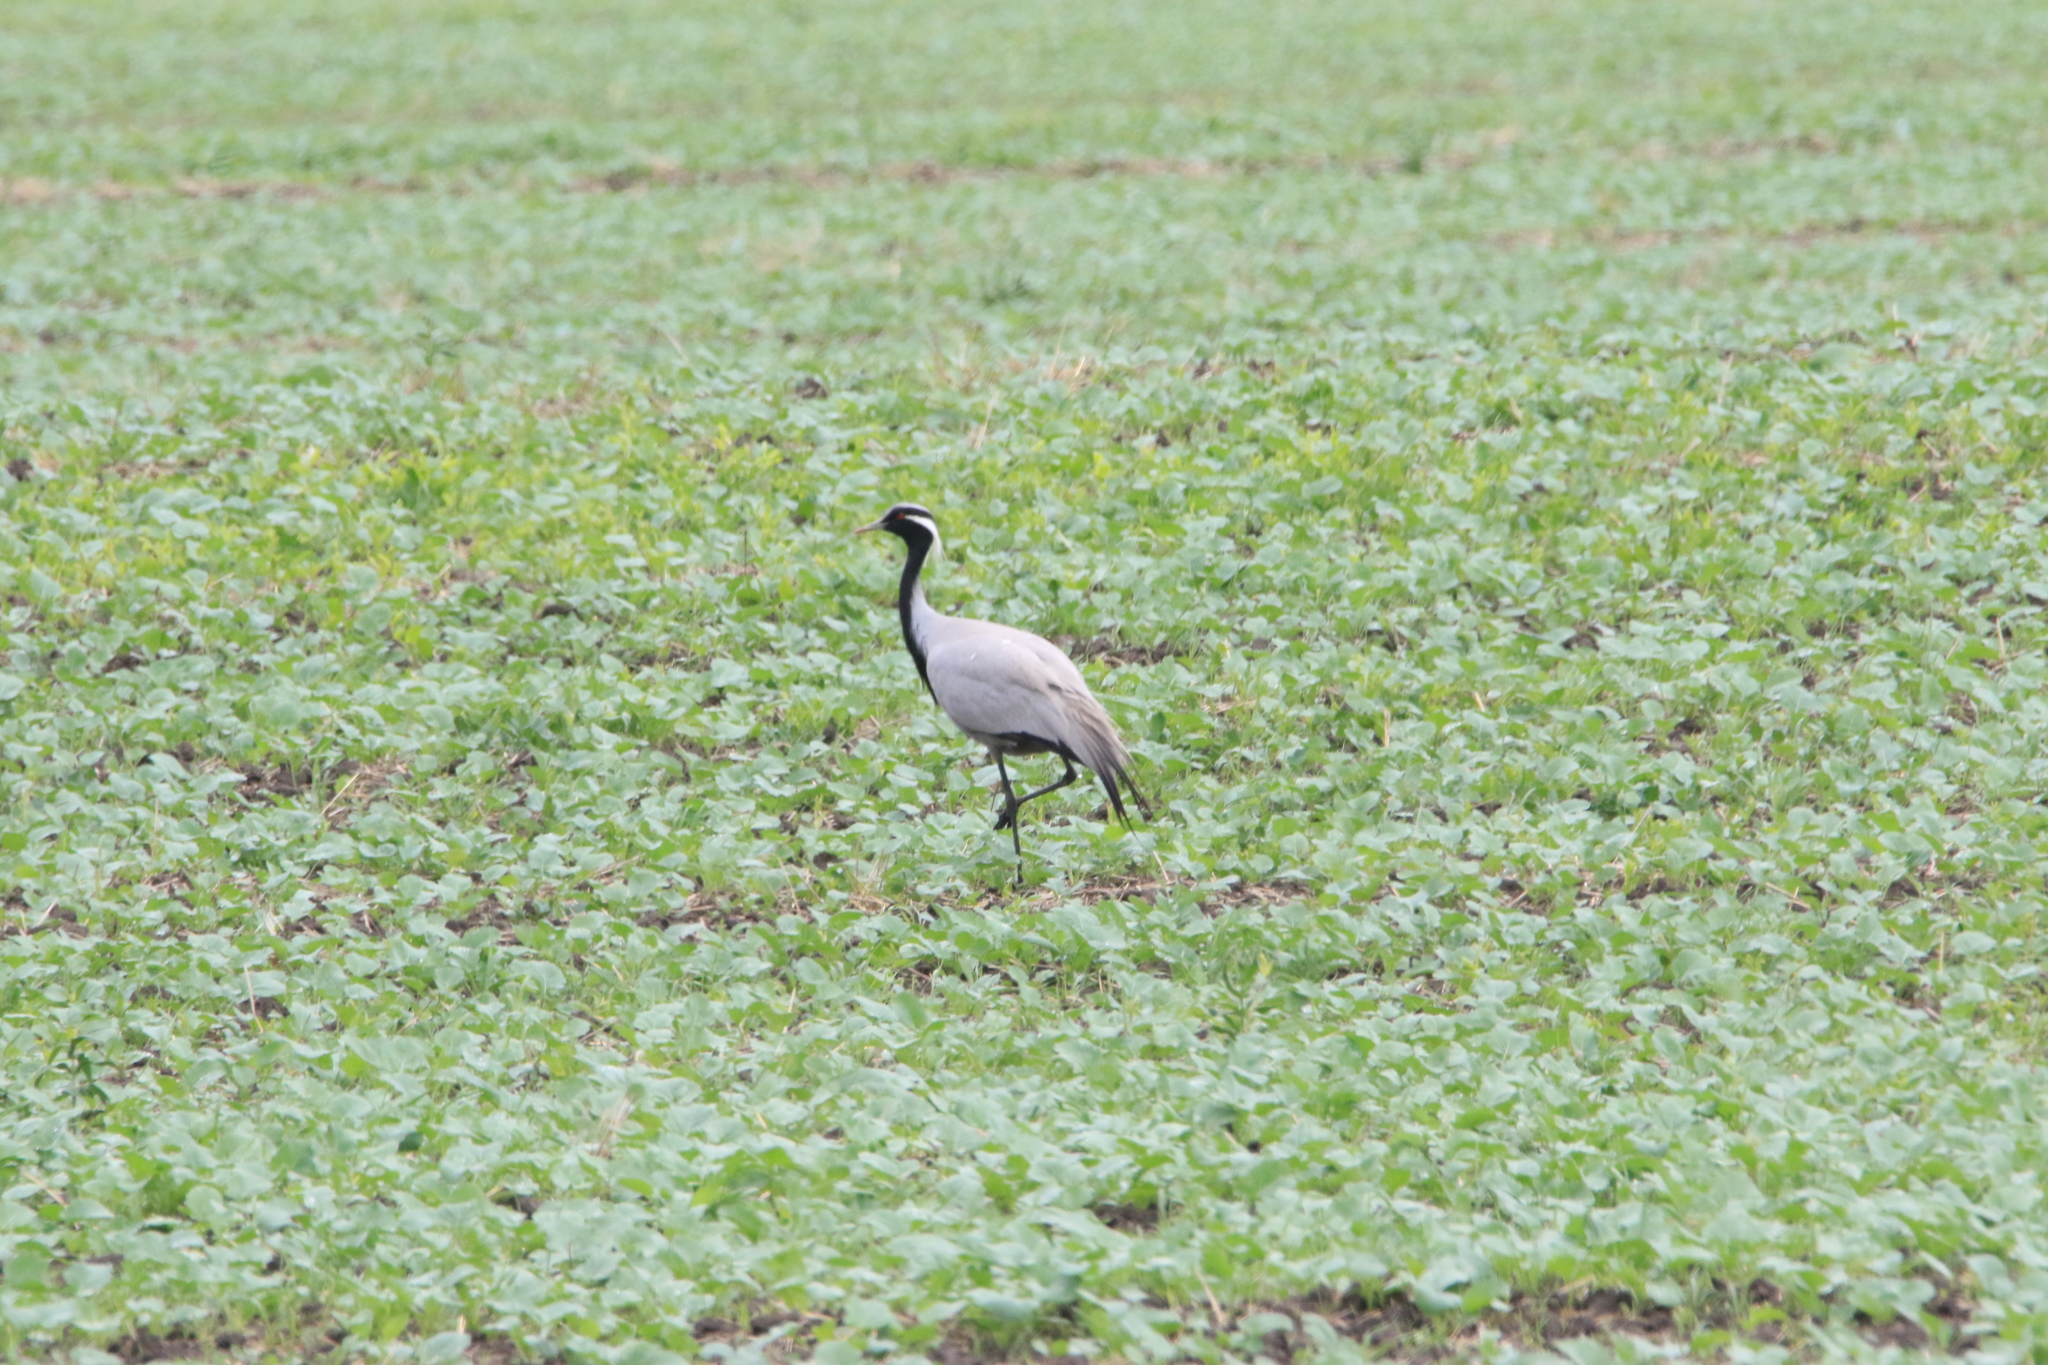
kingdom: Animalia
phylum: Chordata
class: Aves
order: Gruiformes
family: Gruidae
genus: Anthropoides
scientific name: Anthropoides virgo
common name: Demoiselle crane
